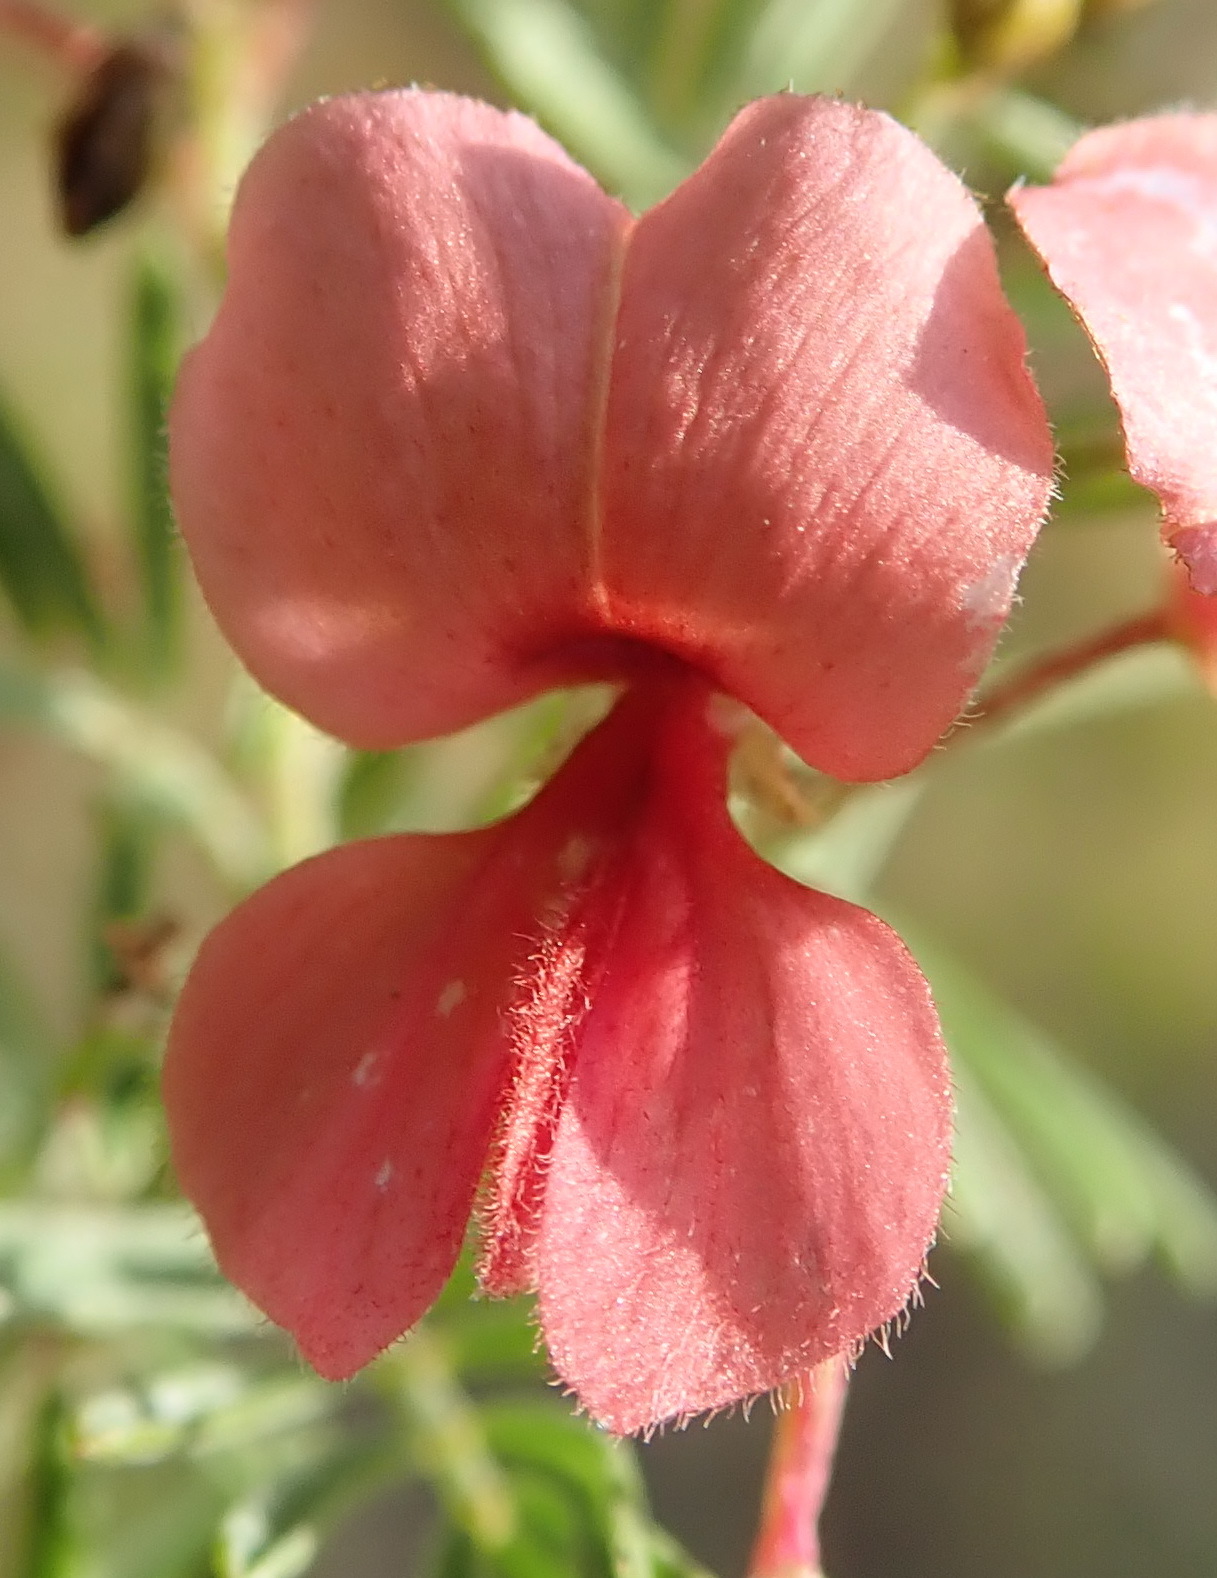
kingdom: Plantae
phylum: Tracheophyta
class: Magnoliopsida
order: Fabales
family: Fabaceae
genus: Indigofera
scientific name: Indigofera verrucosa
